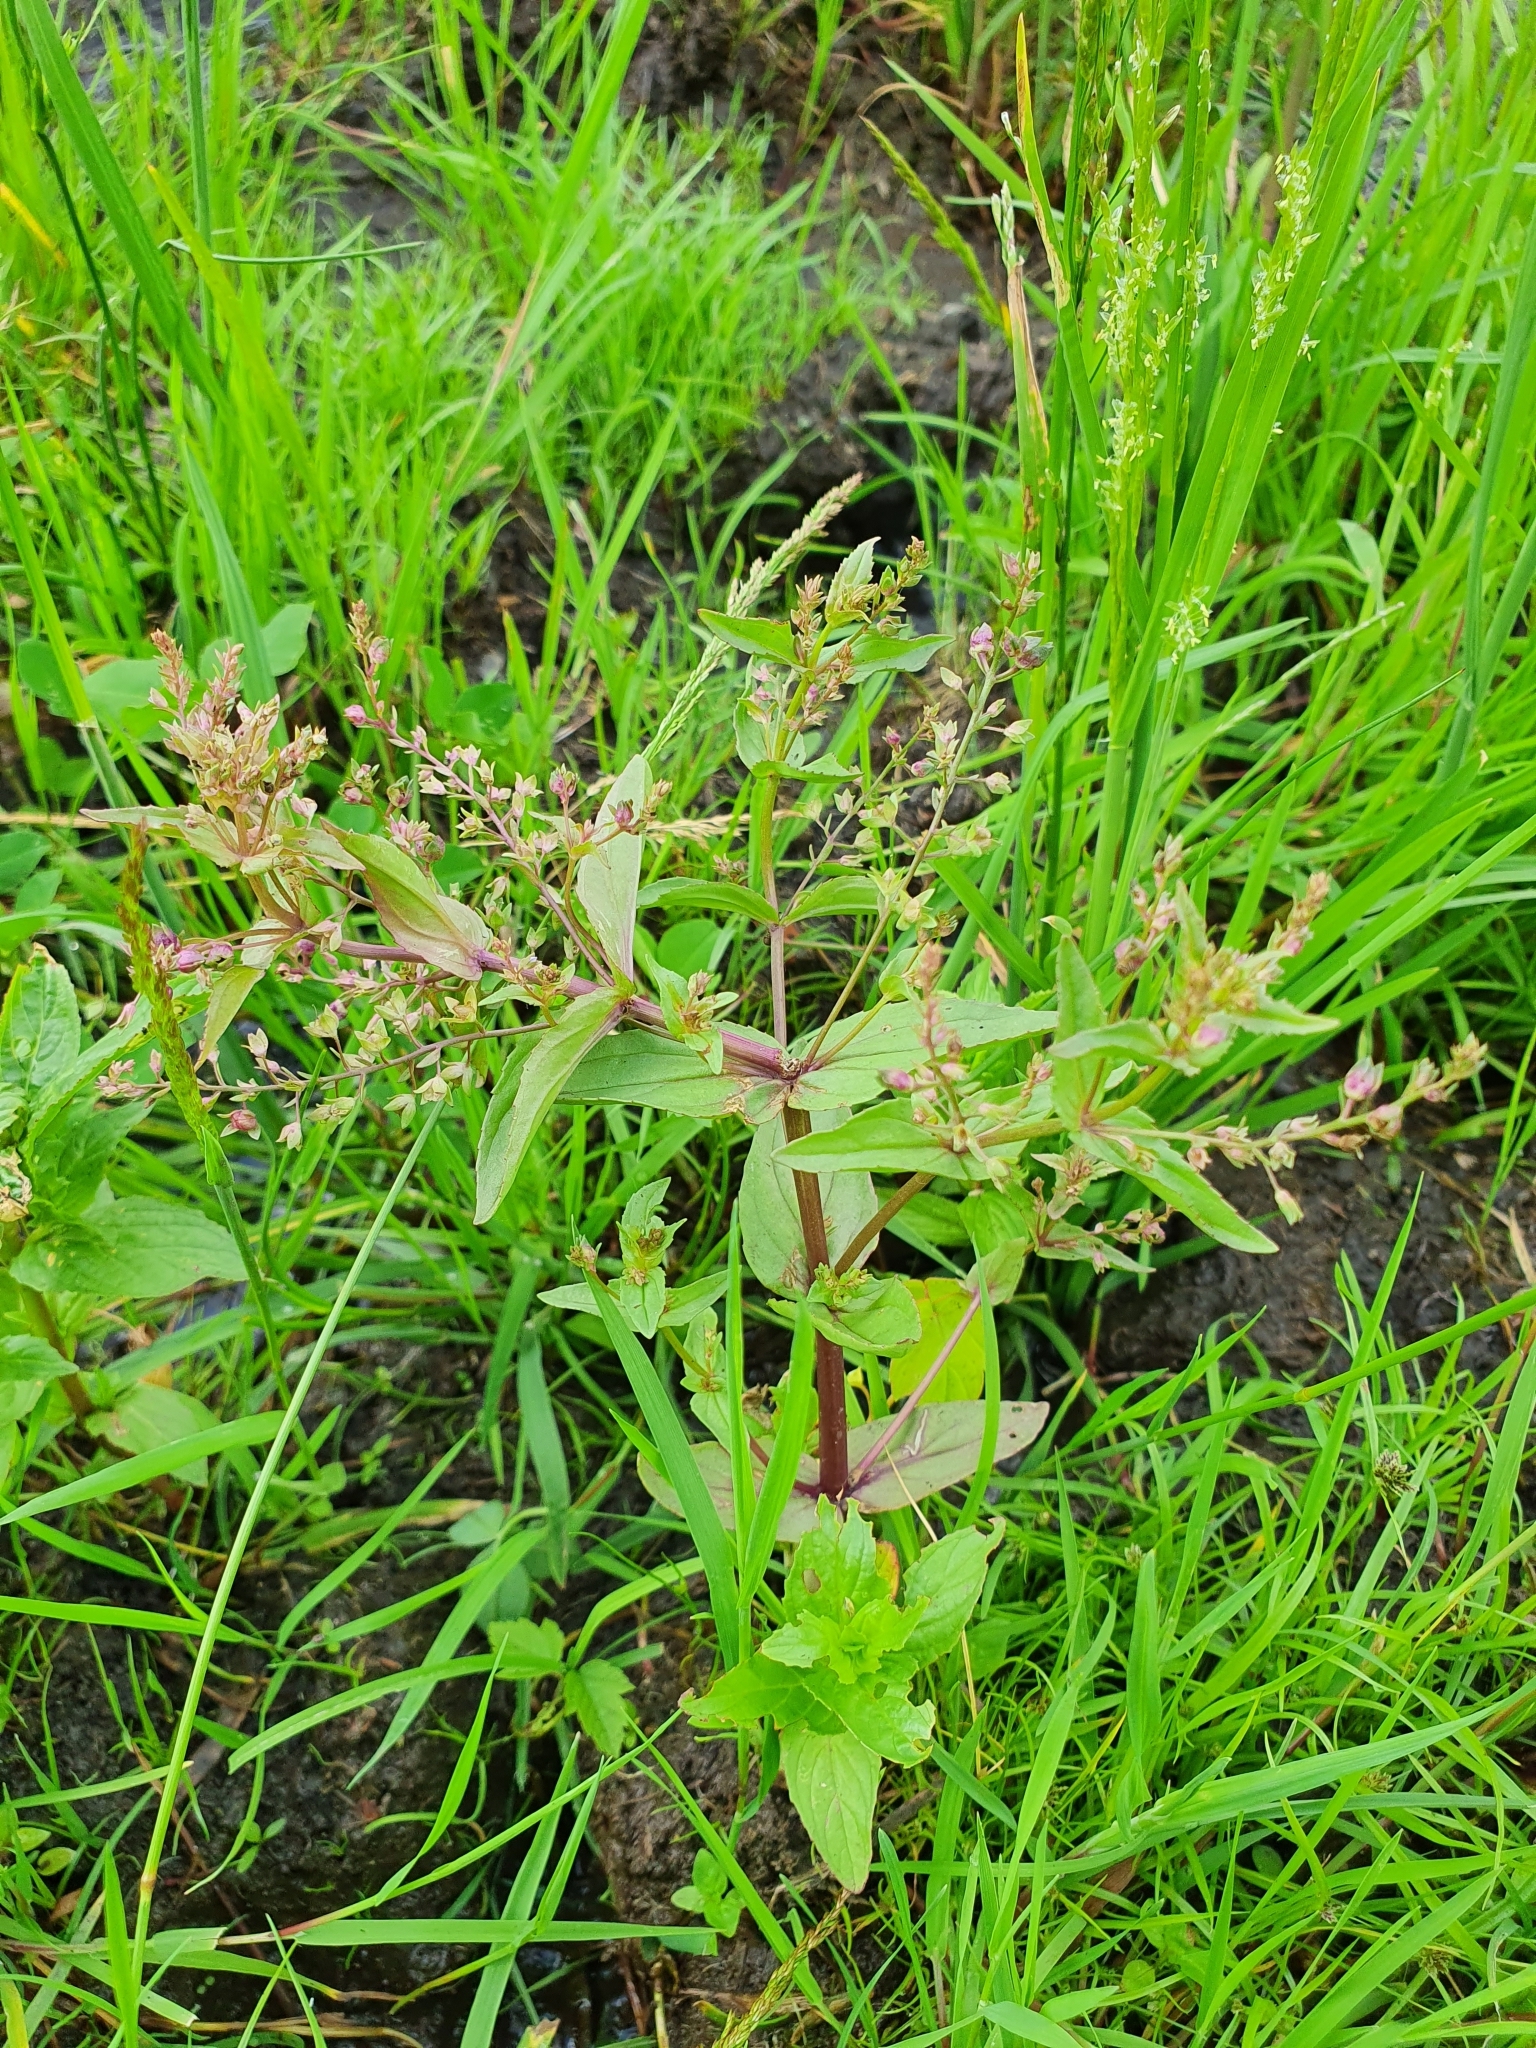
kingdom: Plantae
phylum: Tracheophyta
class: Magnoliopsida
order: Lamiales
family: Plantaginaceae
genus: Veronica
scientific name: Veronica anagallis-aquatica
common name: Water speedwell
